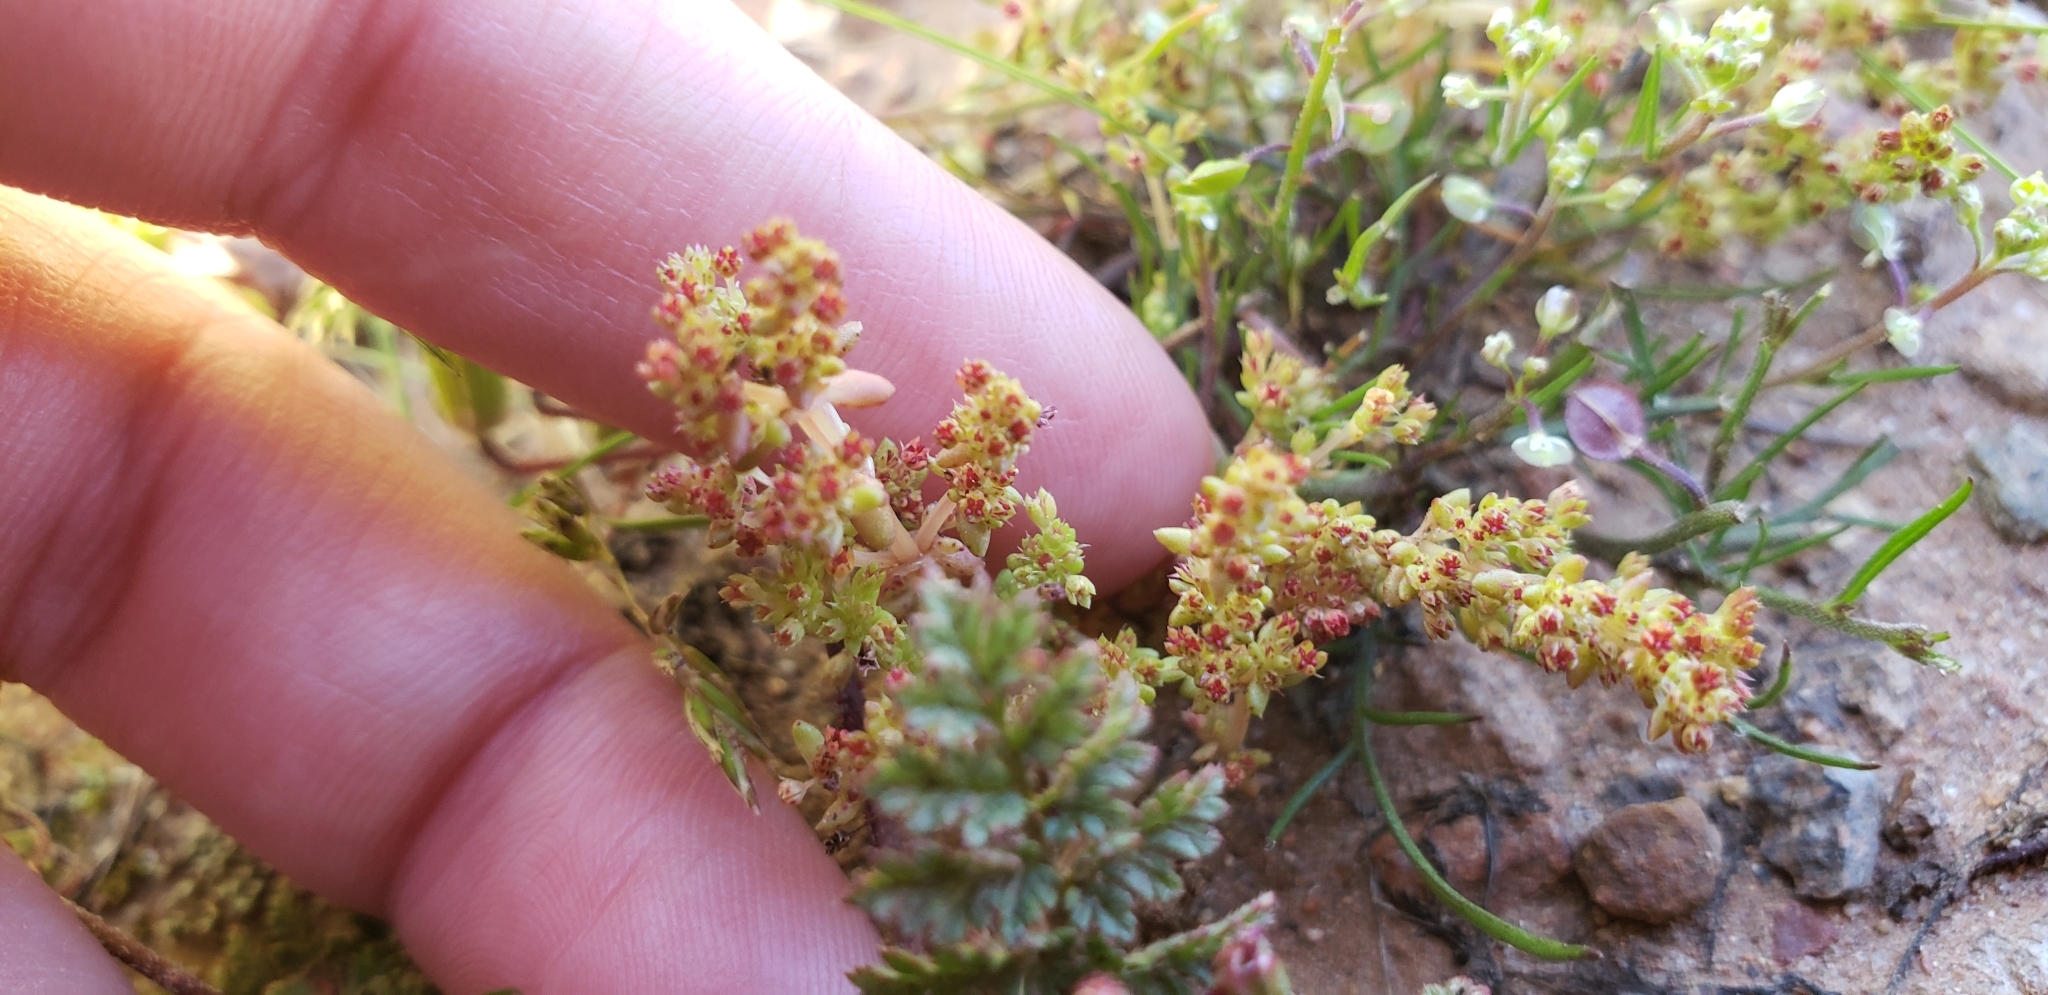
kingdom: Plantae
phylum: Tracheophyta
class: Magnoliopsida
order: Saxifragales
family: Crassulaceae
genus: Crassula
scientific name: Crassula connata
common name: Erect pygmyweed
